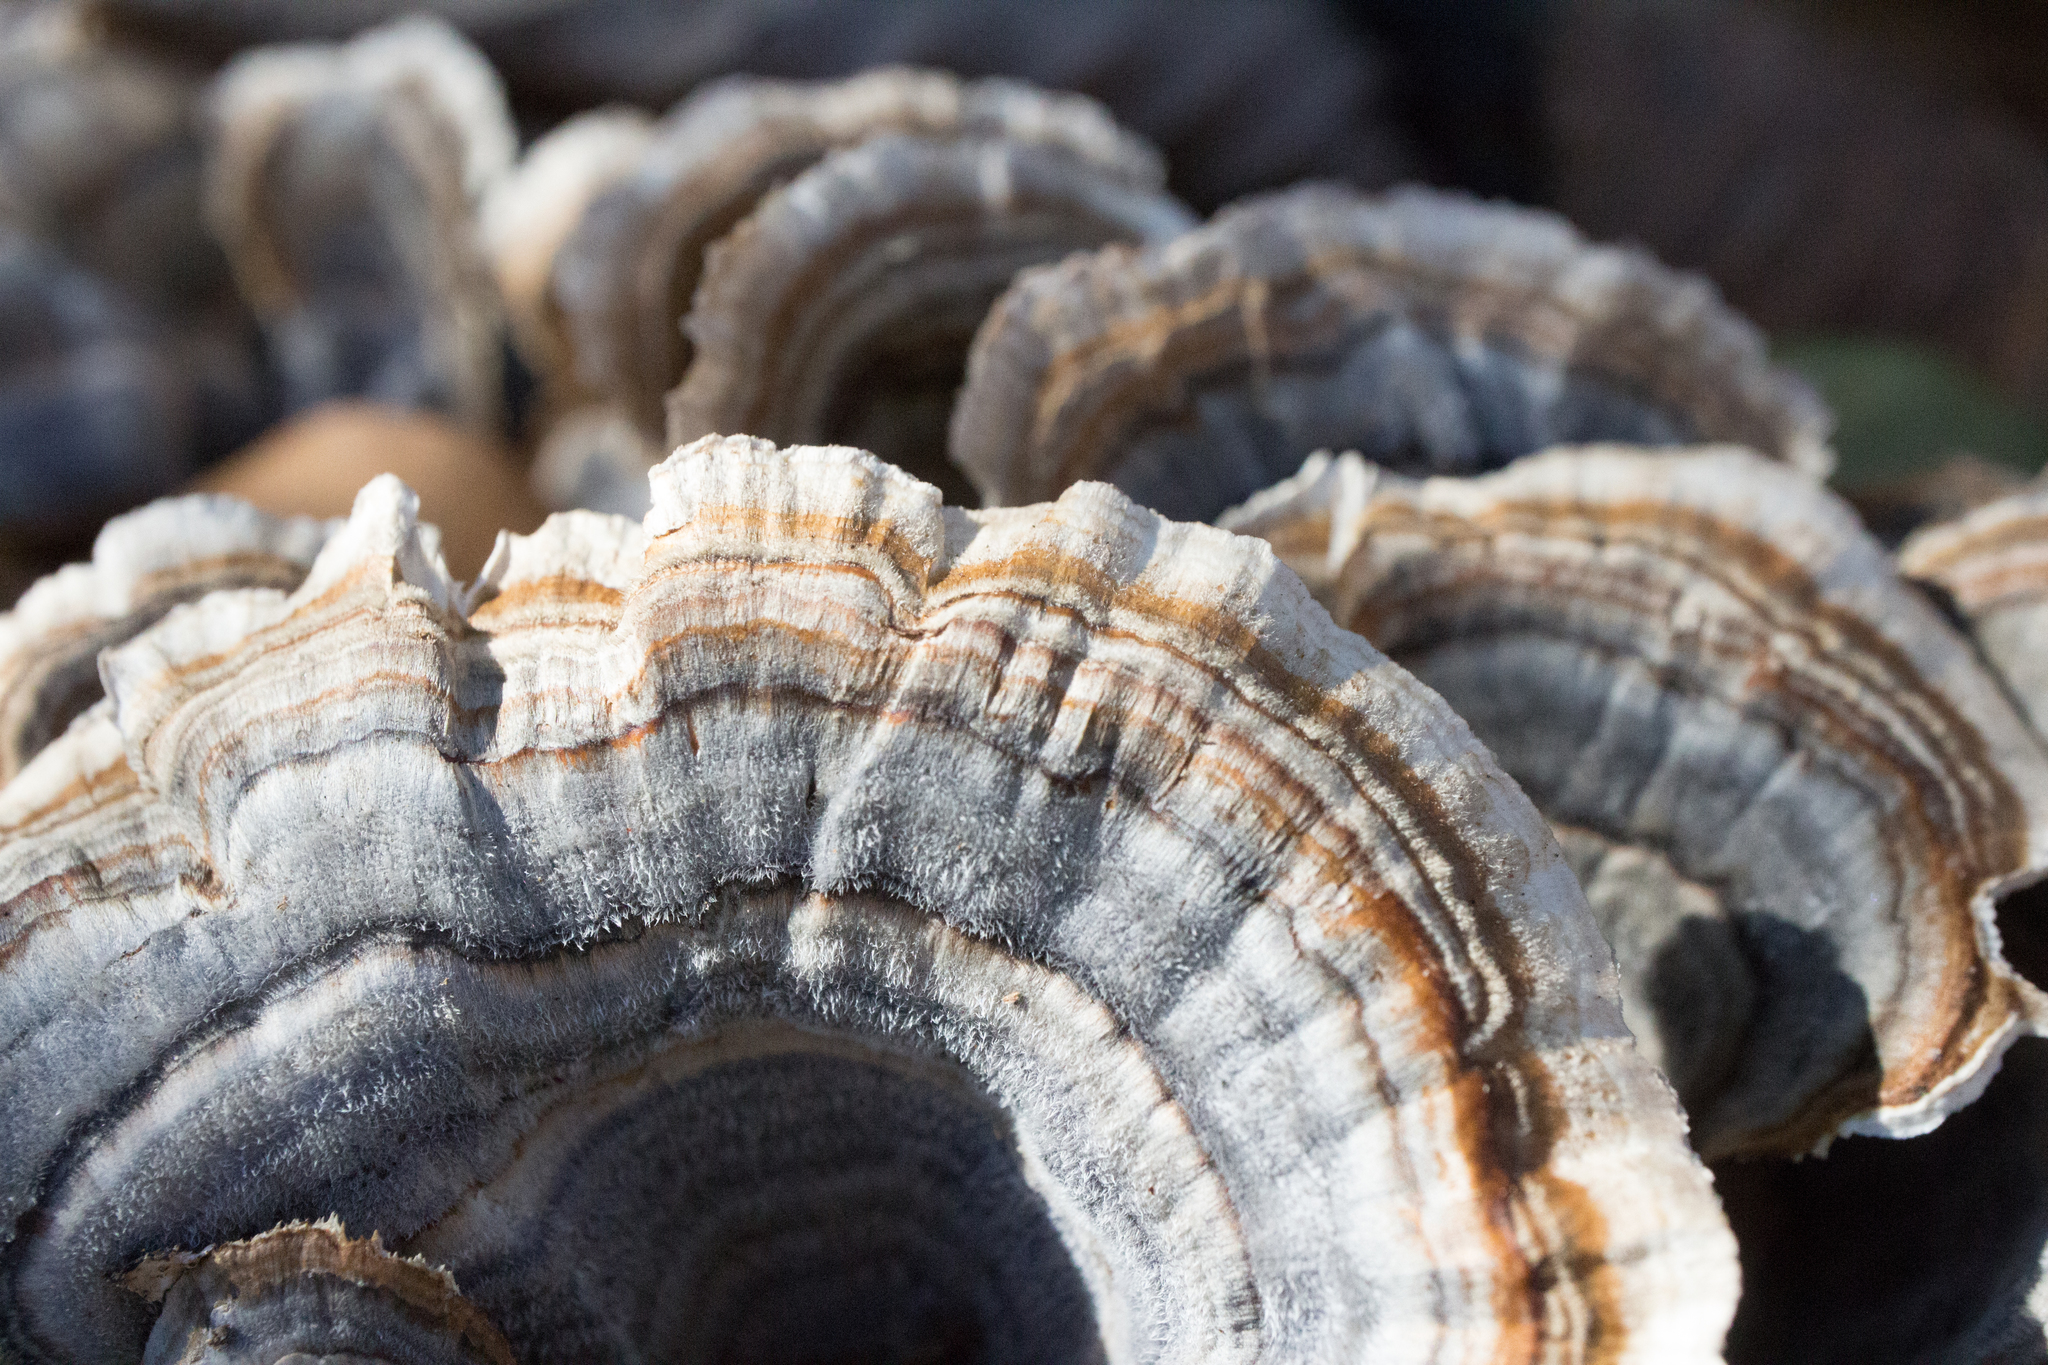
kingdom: Fungi
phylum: Basidiomycota
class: Agaricomycetes
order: Polyporales
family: Polyporaceae
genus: Trametes
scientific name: Trametes versicolor
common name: Turkeytail
